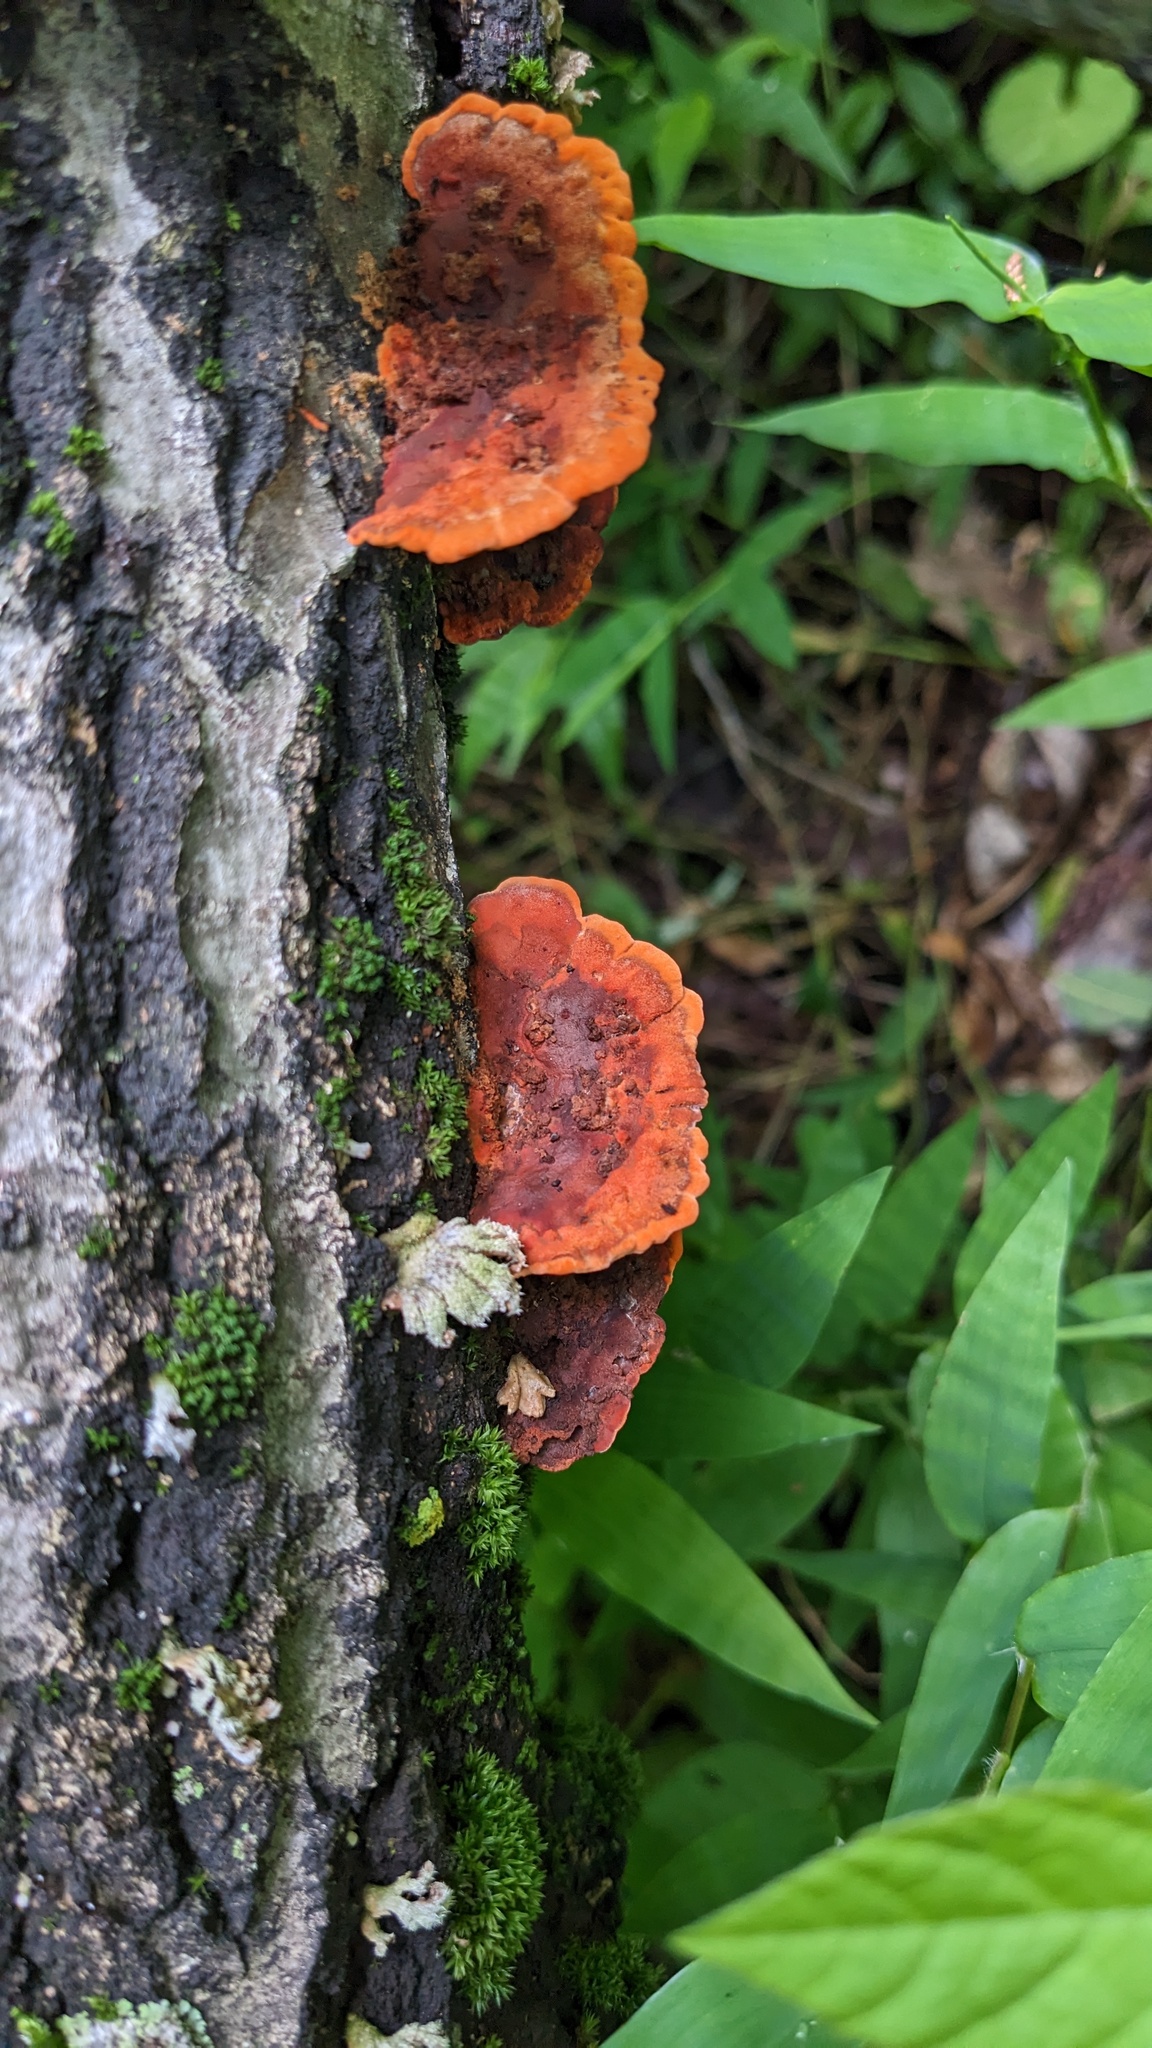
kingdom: Fungi
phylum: Basidiomycota
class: Agaricomycetes
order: Polyporales
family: Polyporaceae
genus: Trametes
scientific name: Trametes coccinea
